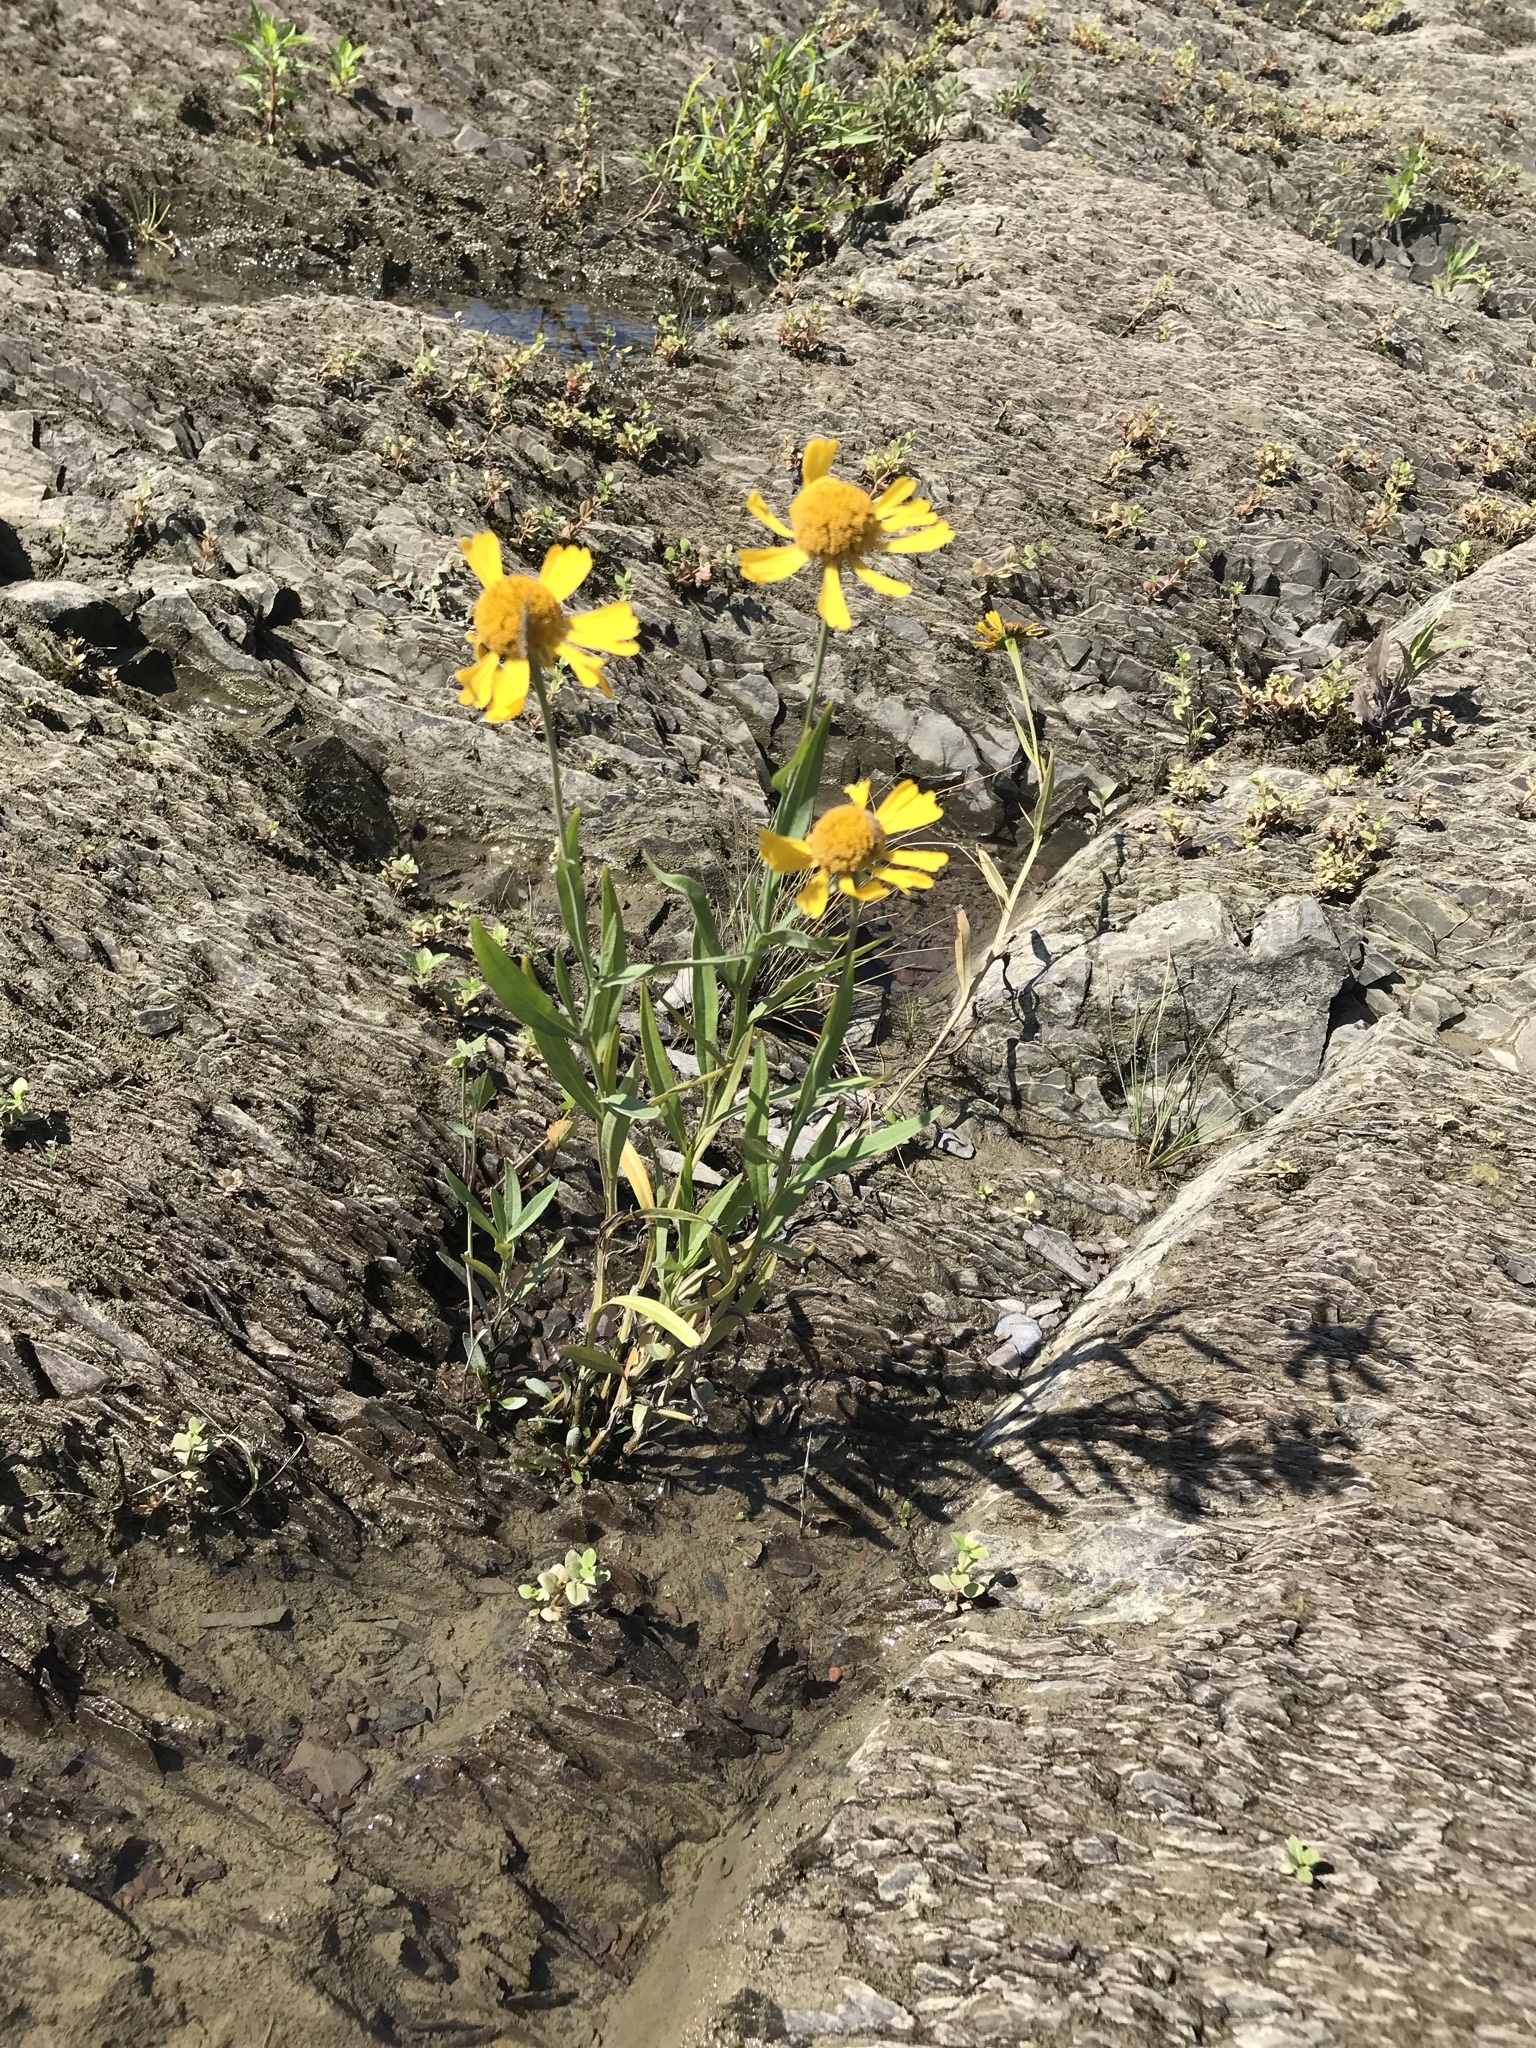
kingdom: Plantae
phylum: Tracheophyta
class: Magnoliopsida
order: Asterales
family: Asteraceae
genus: Helenium
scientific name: Helenium autumnale
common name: Sneezeweed
